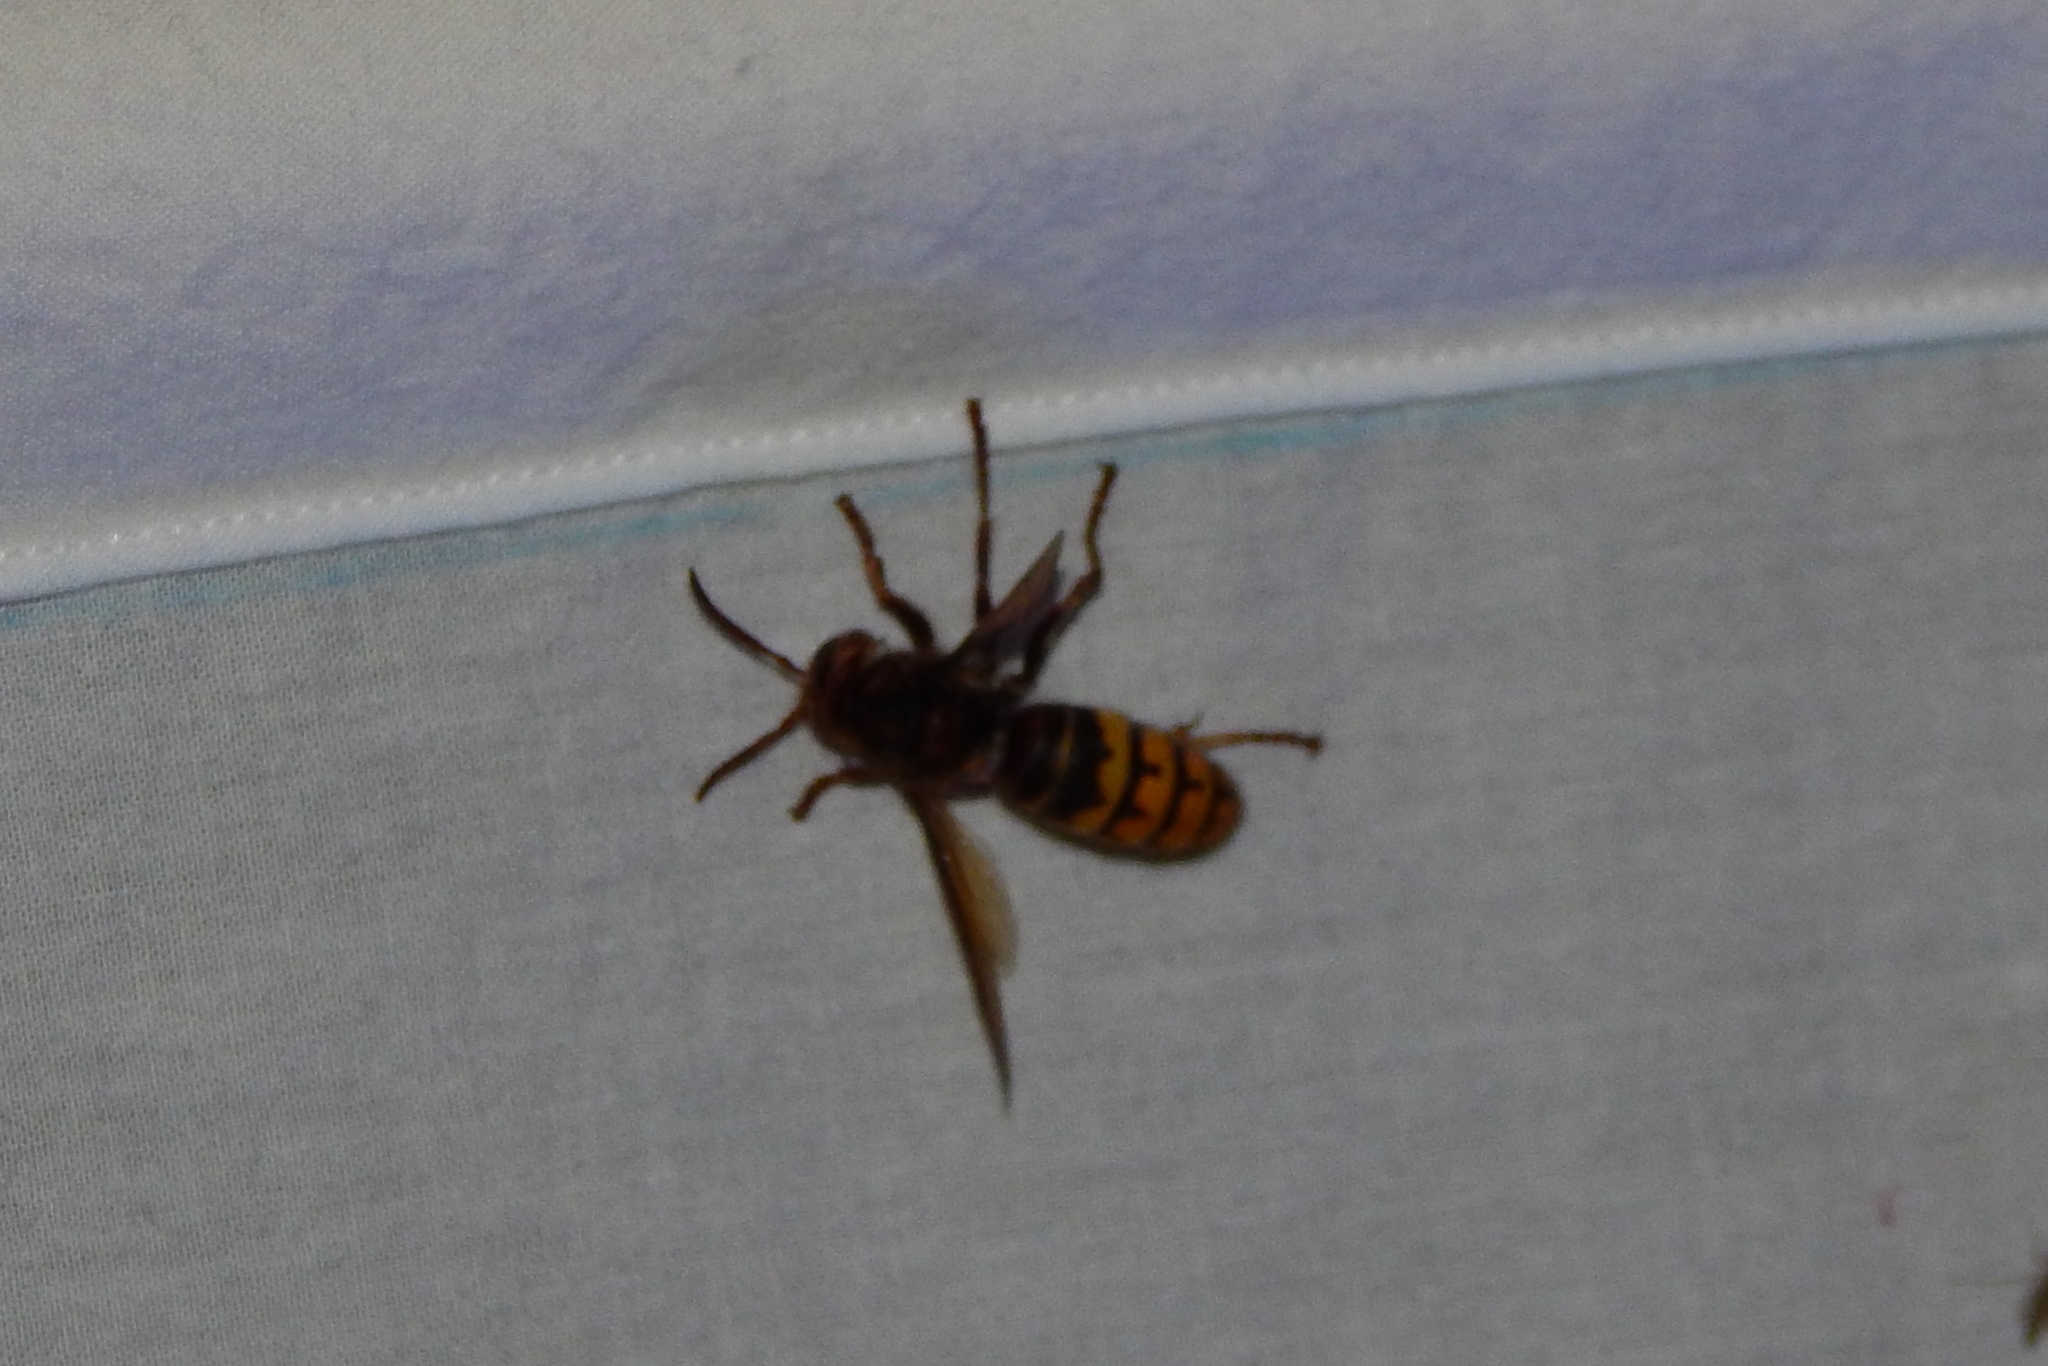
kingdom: Animalia
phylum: Arthropoda
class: Insecta
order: Hymenoptera
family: Vespidae
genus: Vespa
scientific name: Vespa crabro
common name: Hornet
